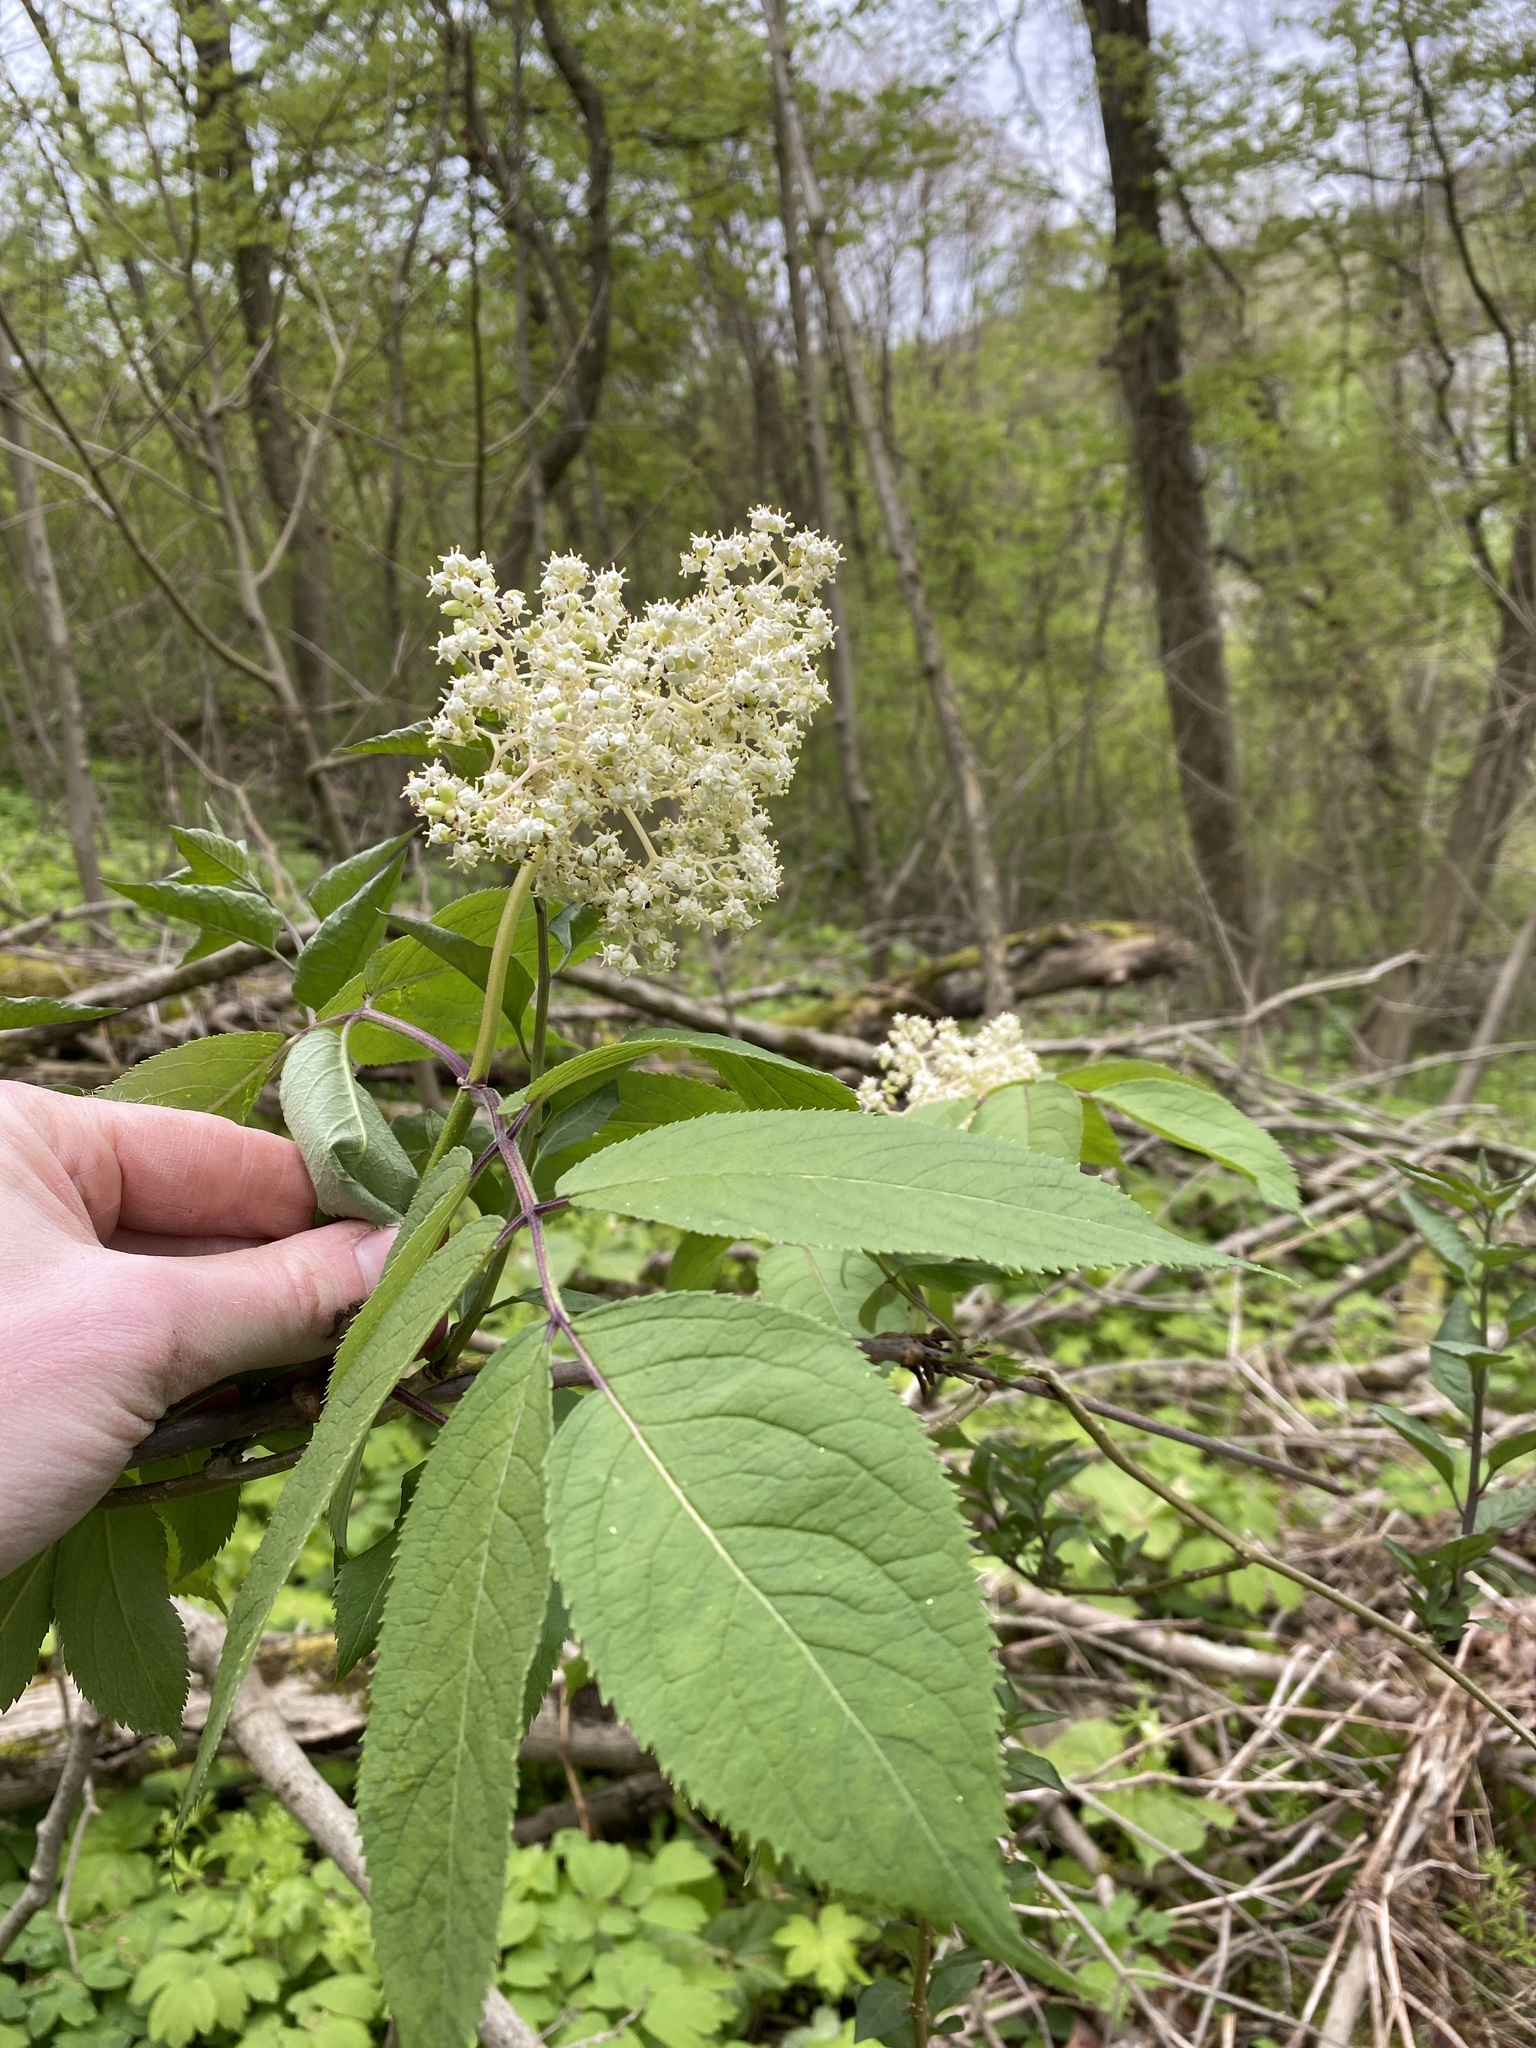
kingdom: Plantae
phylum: Tracheophyta
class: Magnoliopsida
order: Dipsacales
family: Viburnaceae
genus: Sambucus
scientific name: Sambucus racemosa
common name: Red-berried elder
